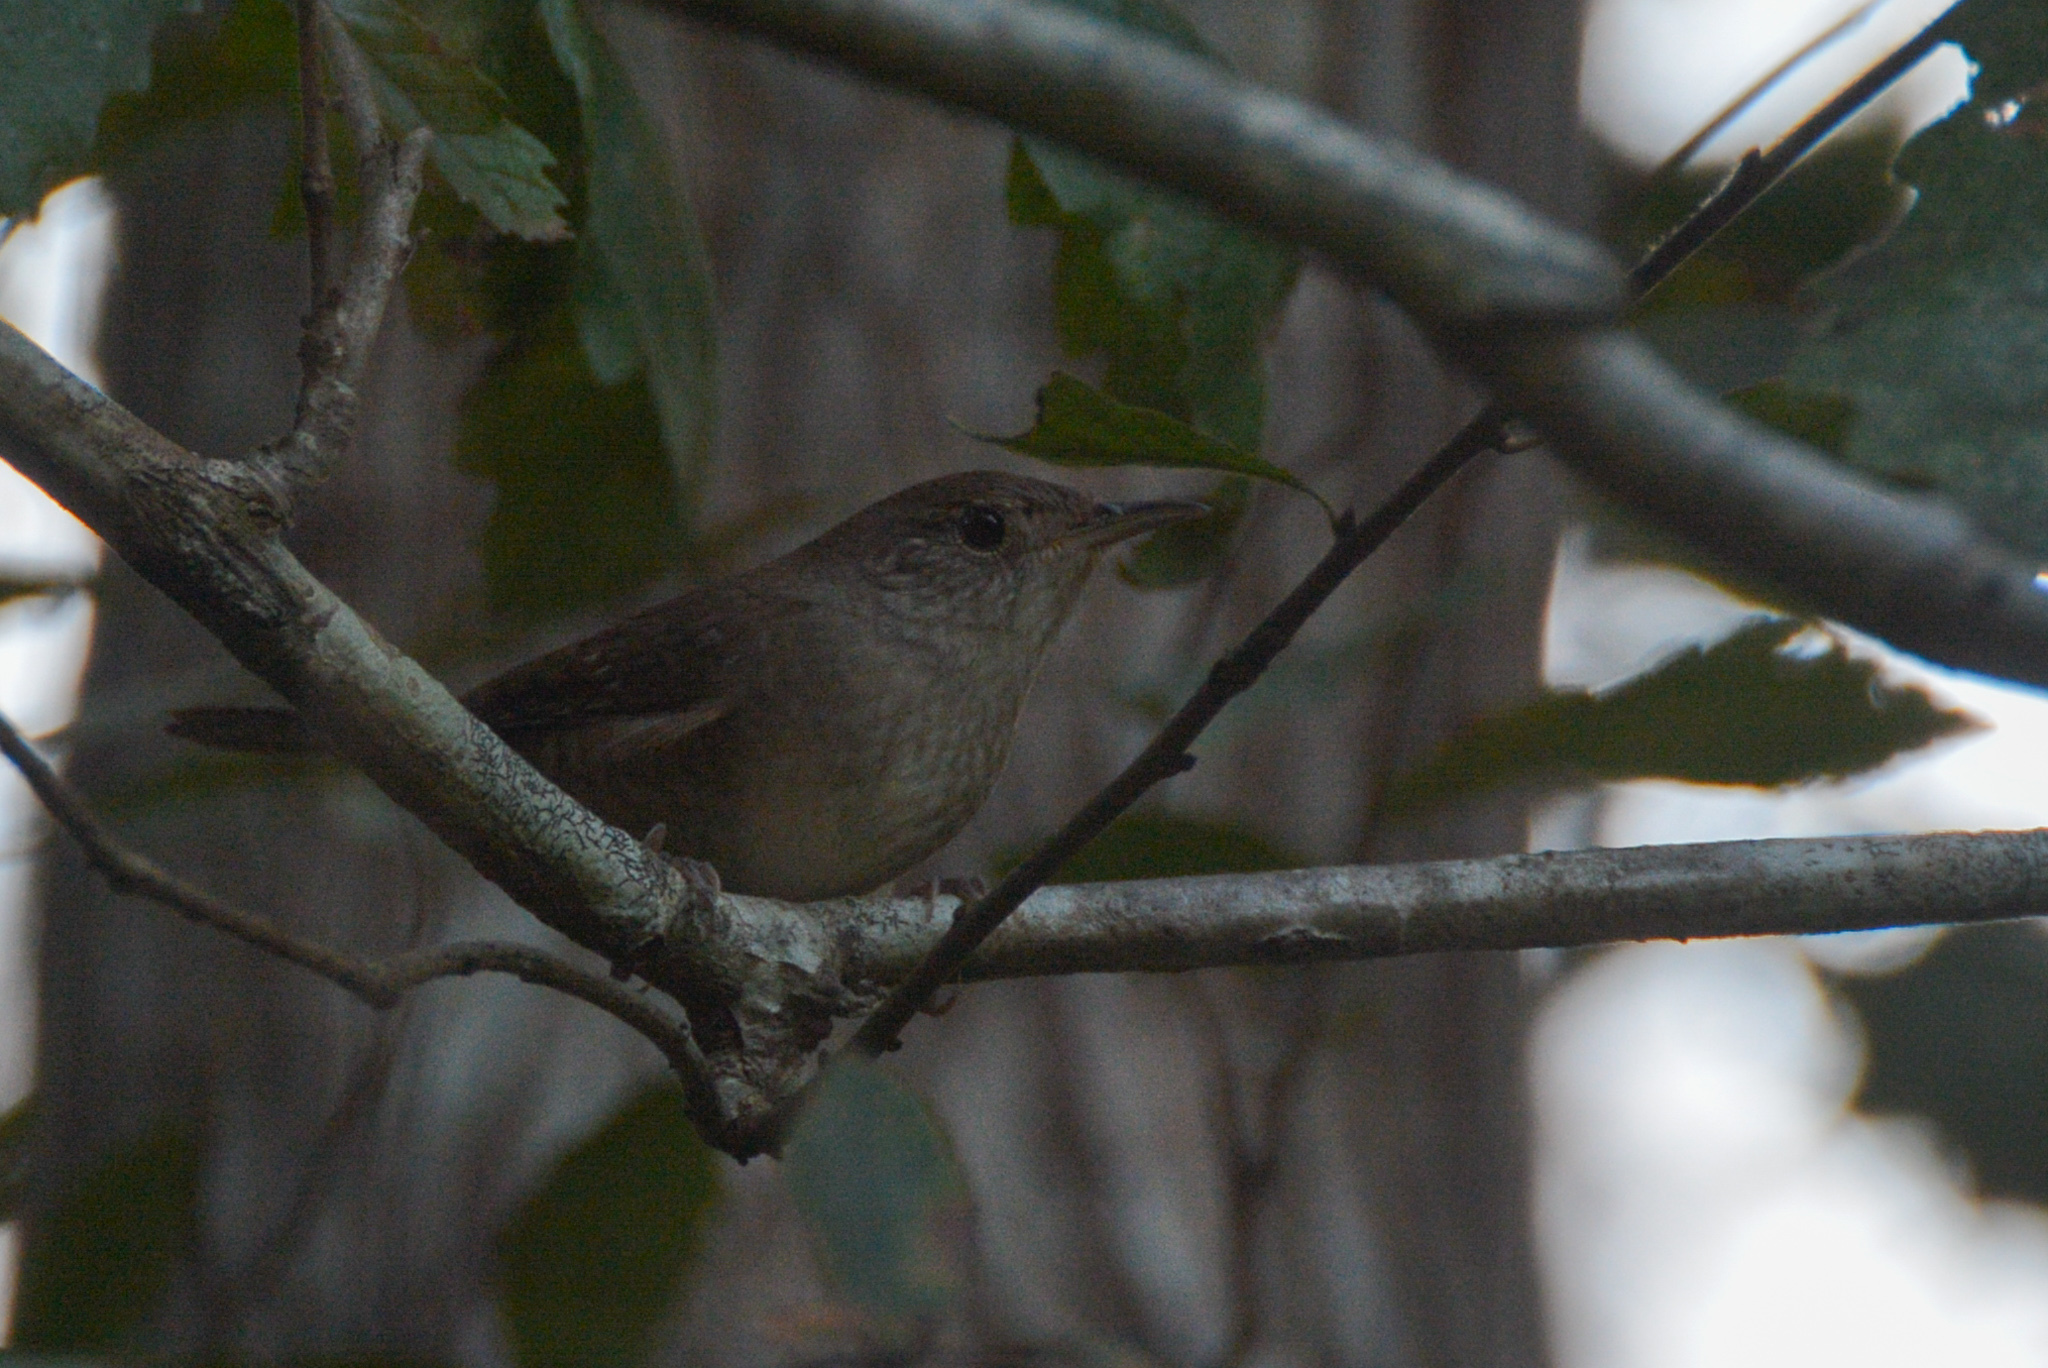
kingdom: Animalia
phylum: Chordata
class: Aves
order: Passeriformes
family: Troglodytidae
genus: Troglodytes
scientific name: Troglodytes aedon
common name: House wren
